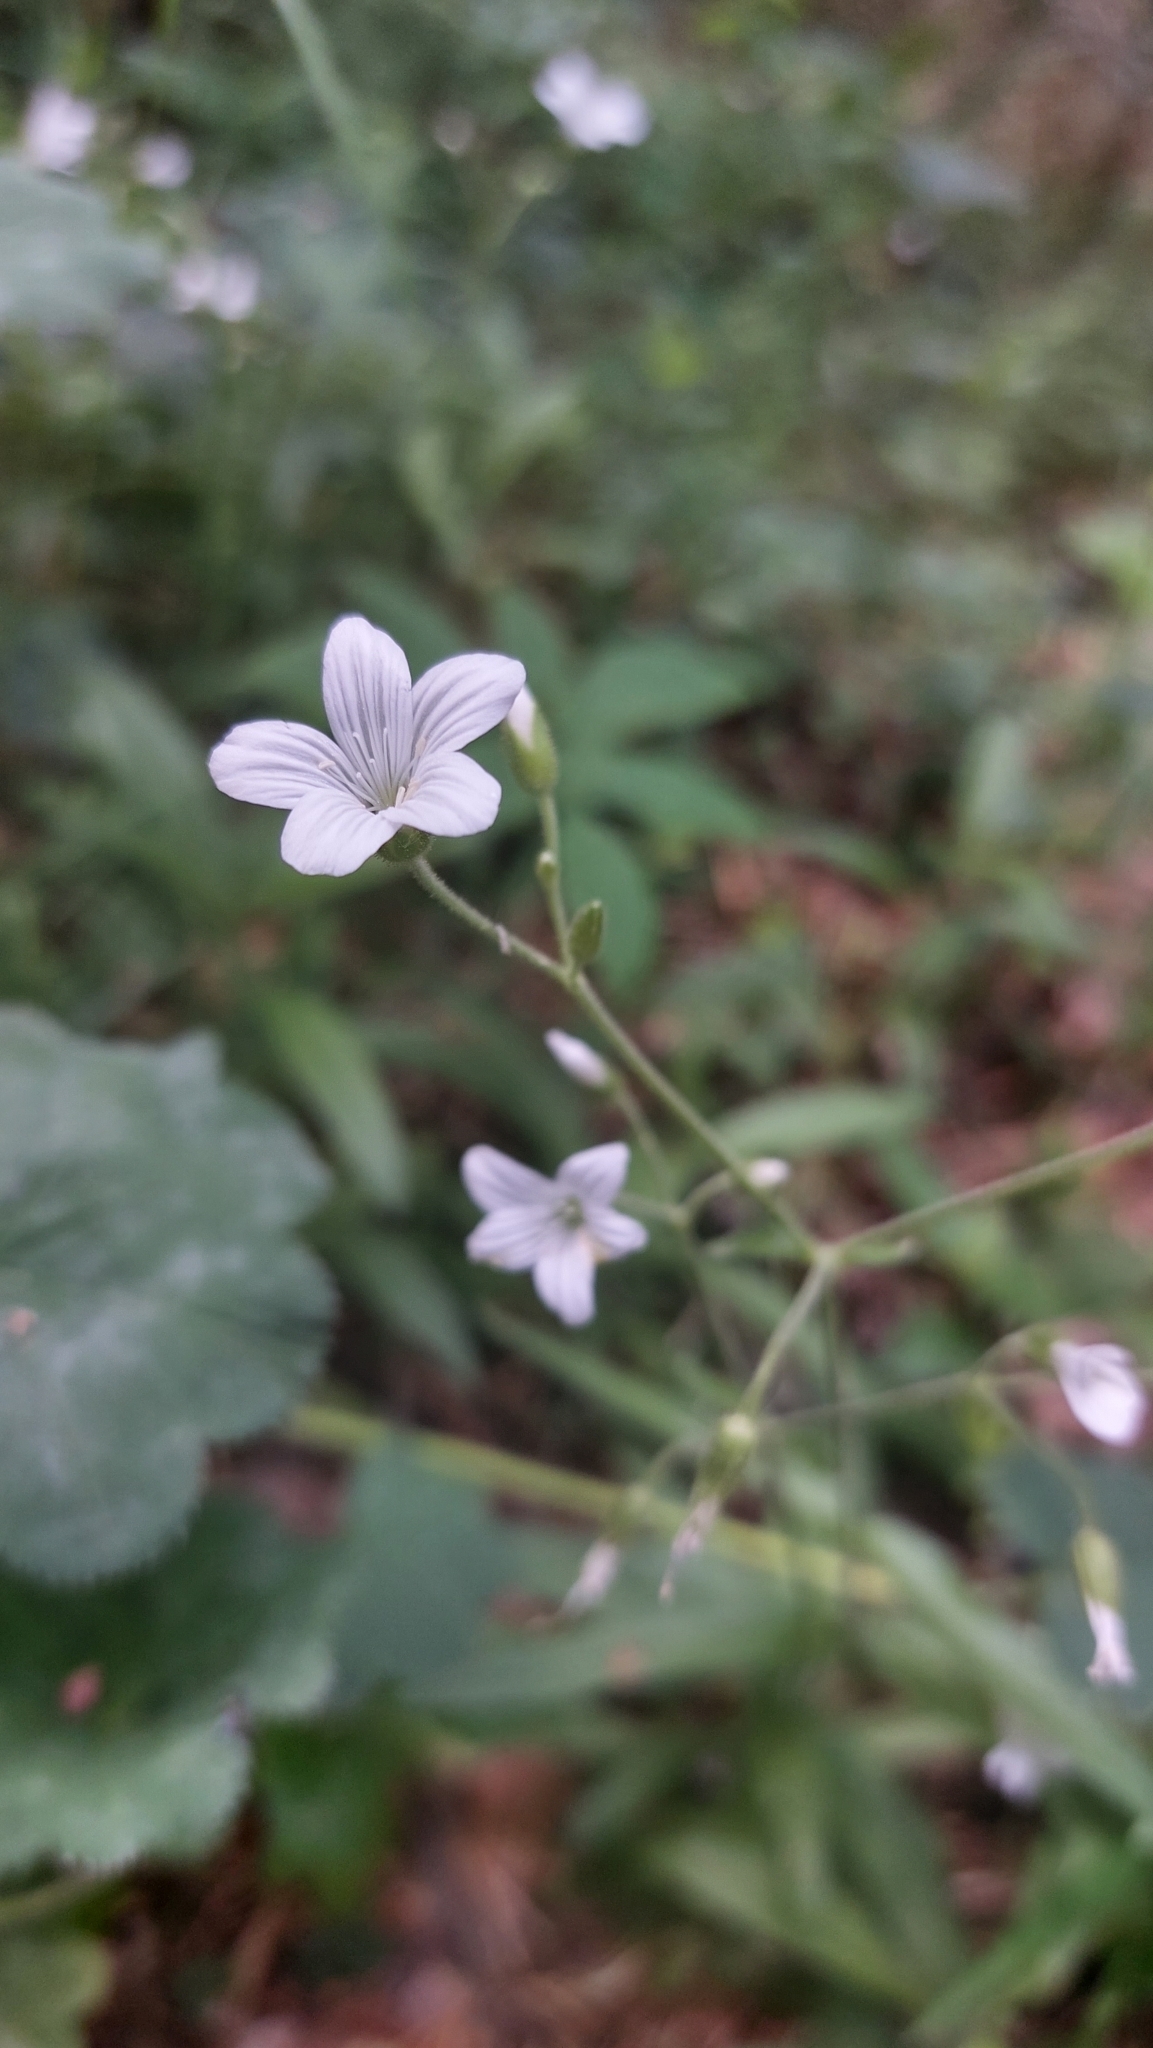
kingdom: Plantae
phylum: Tracheophyta
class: Magnoliopsida
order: Caryophyllales
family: Caryophyllaceae
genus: Cerastium
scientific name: Cerastium pauciflorum
